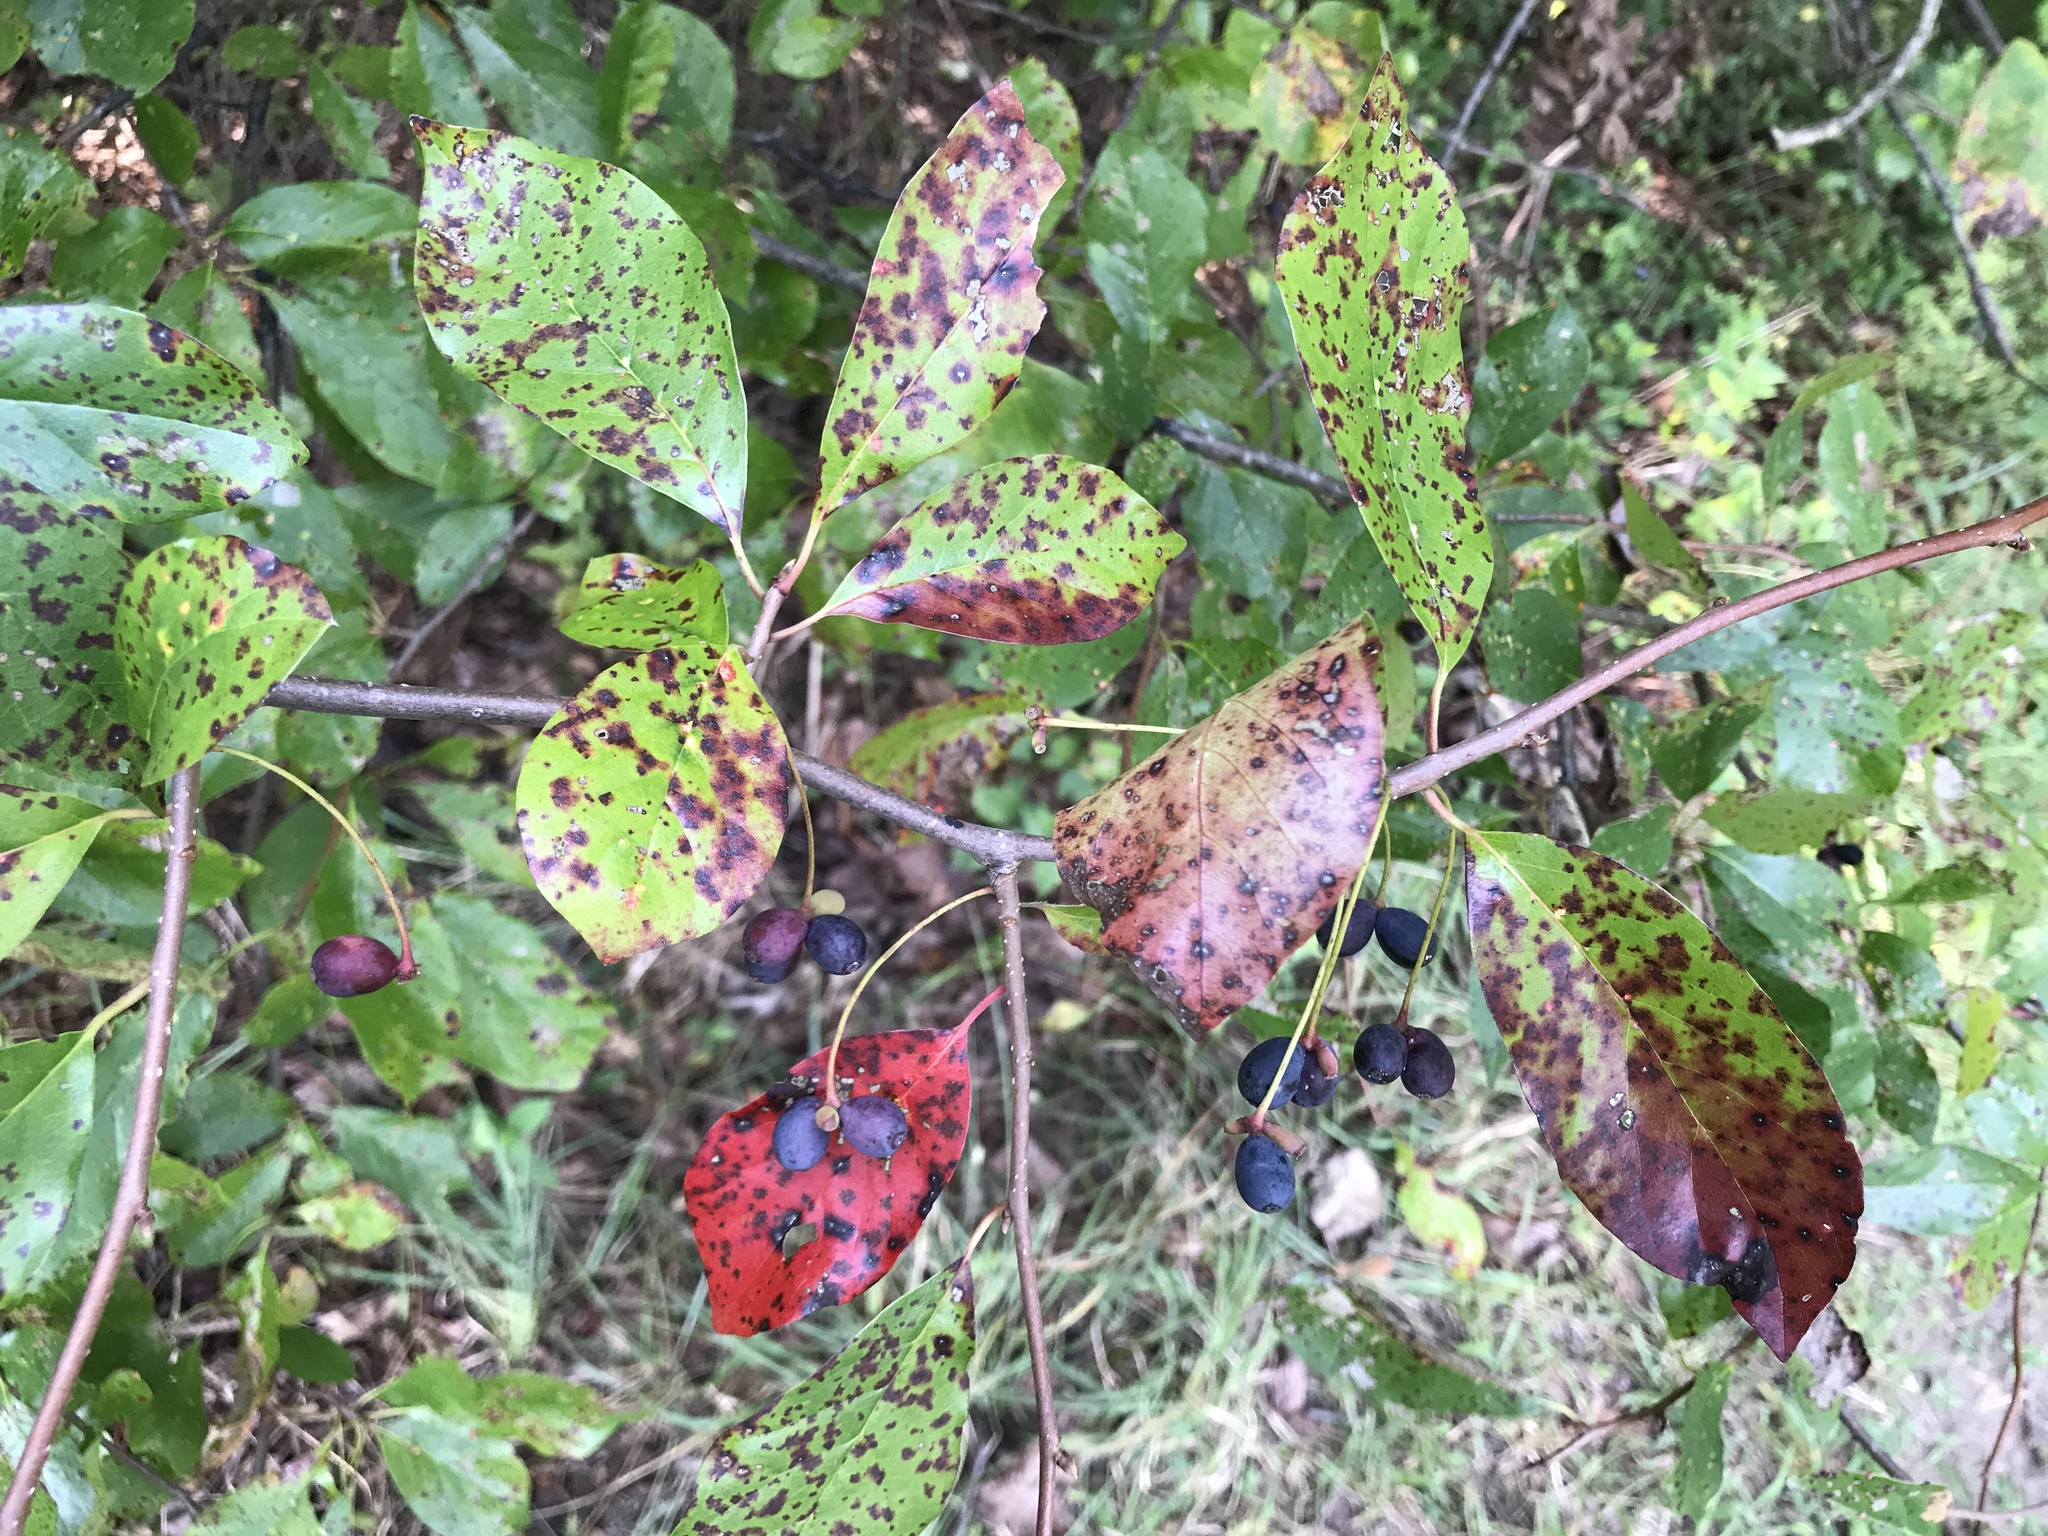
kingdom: Plantae
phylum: Tracheophyta
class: Magnoliopsida
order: Cornales
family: Nyssaceae
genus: Nyssa
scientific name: Nyssa sylvatica
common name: Black tupelo
